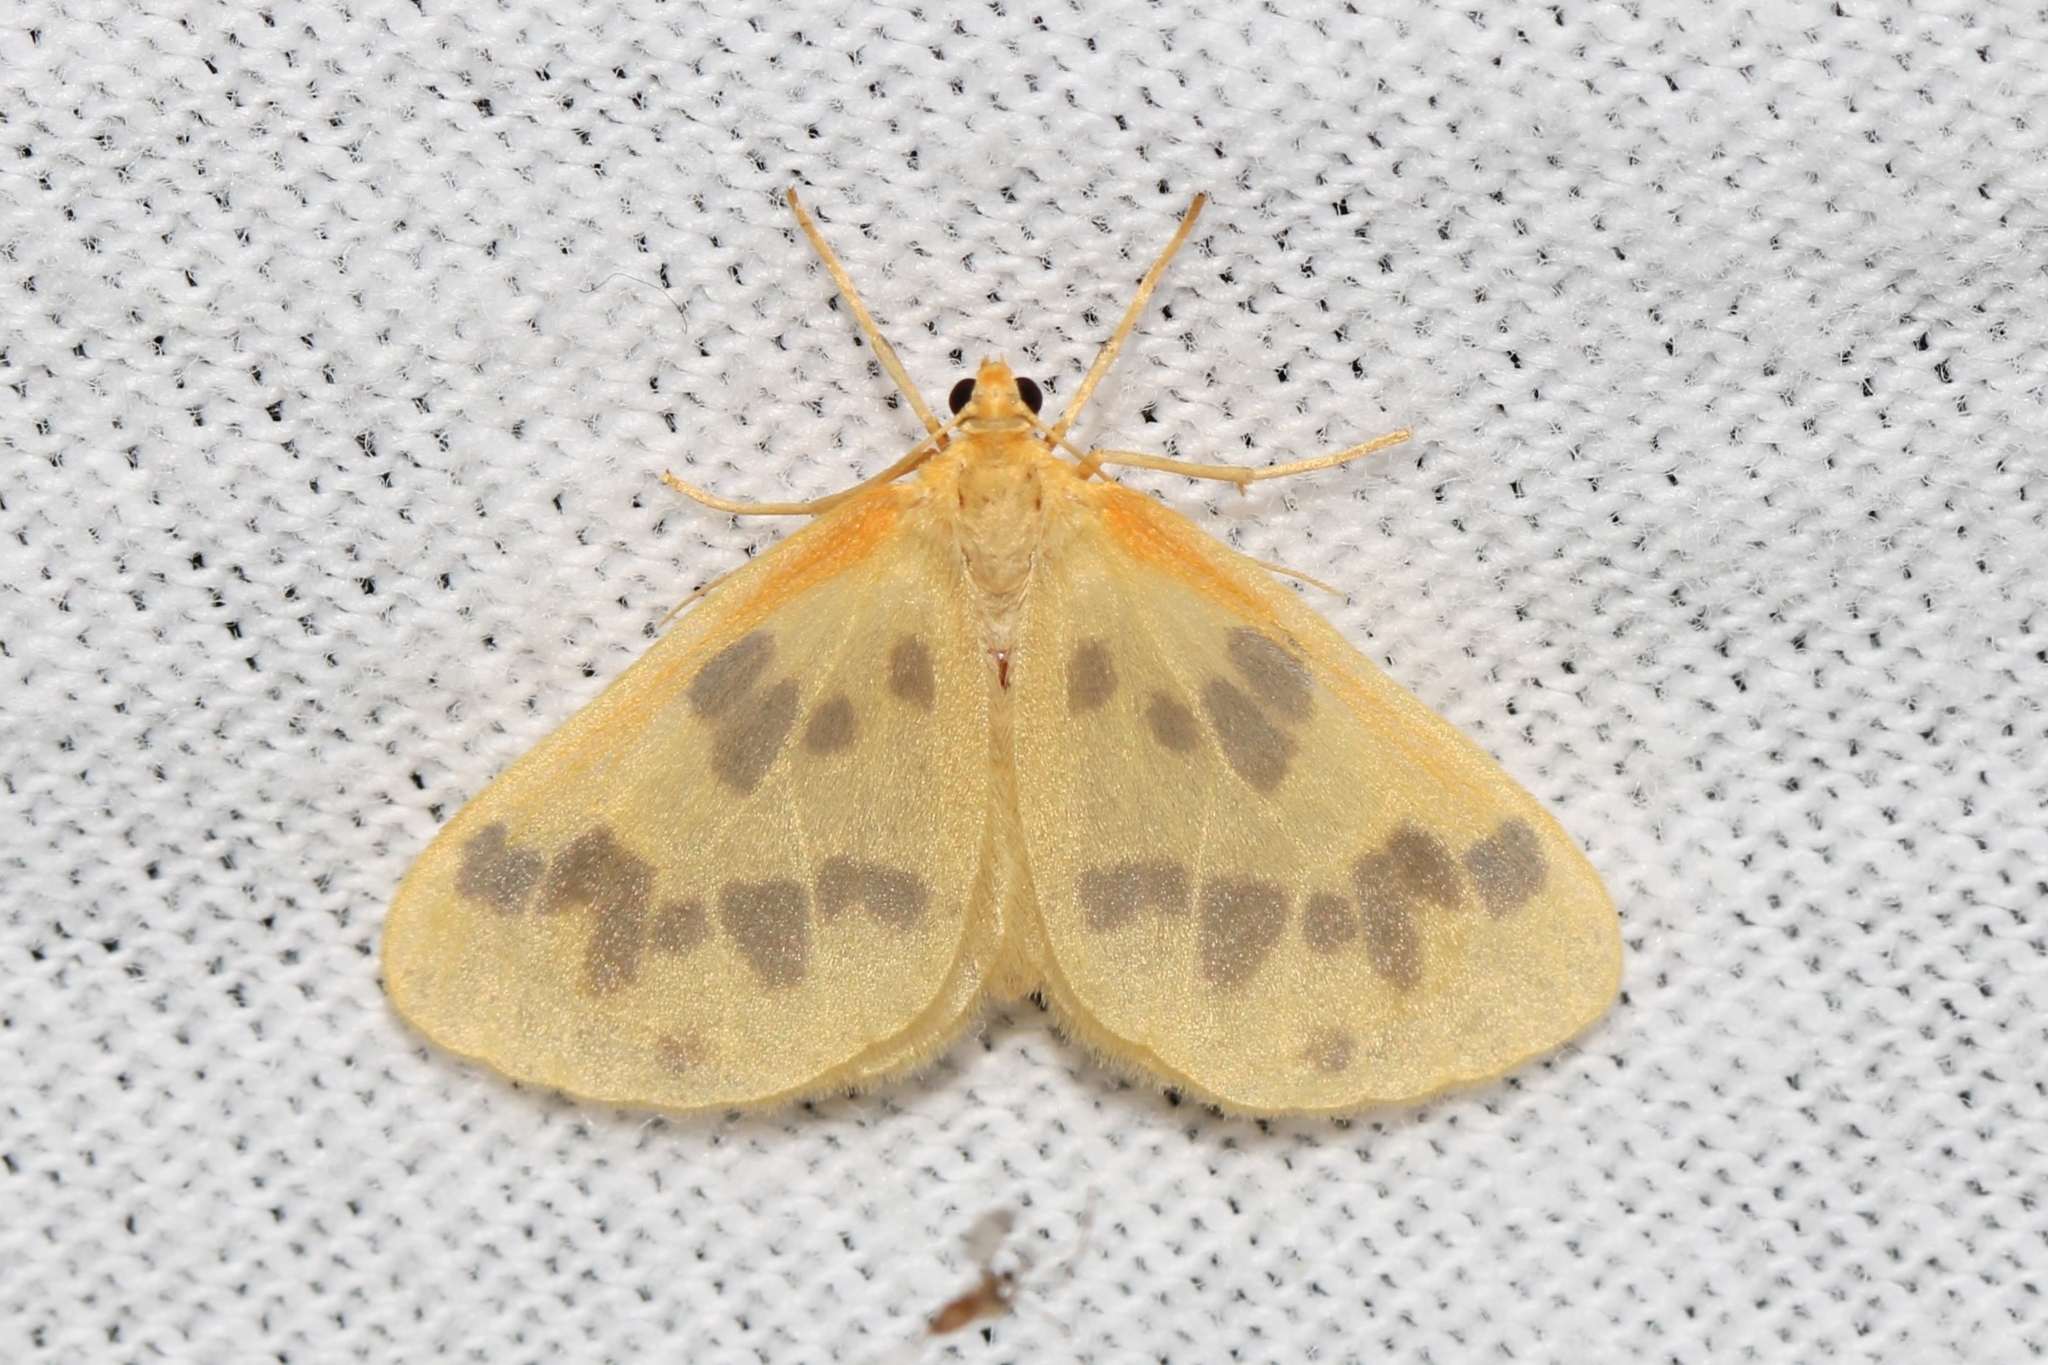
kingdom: Animalia
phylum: Arthropoda
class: Insecta
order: Lepidoptera
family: Geometridae
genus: Eubaphe
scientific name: Eubaphe mendica
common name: Beggar
